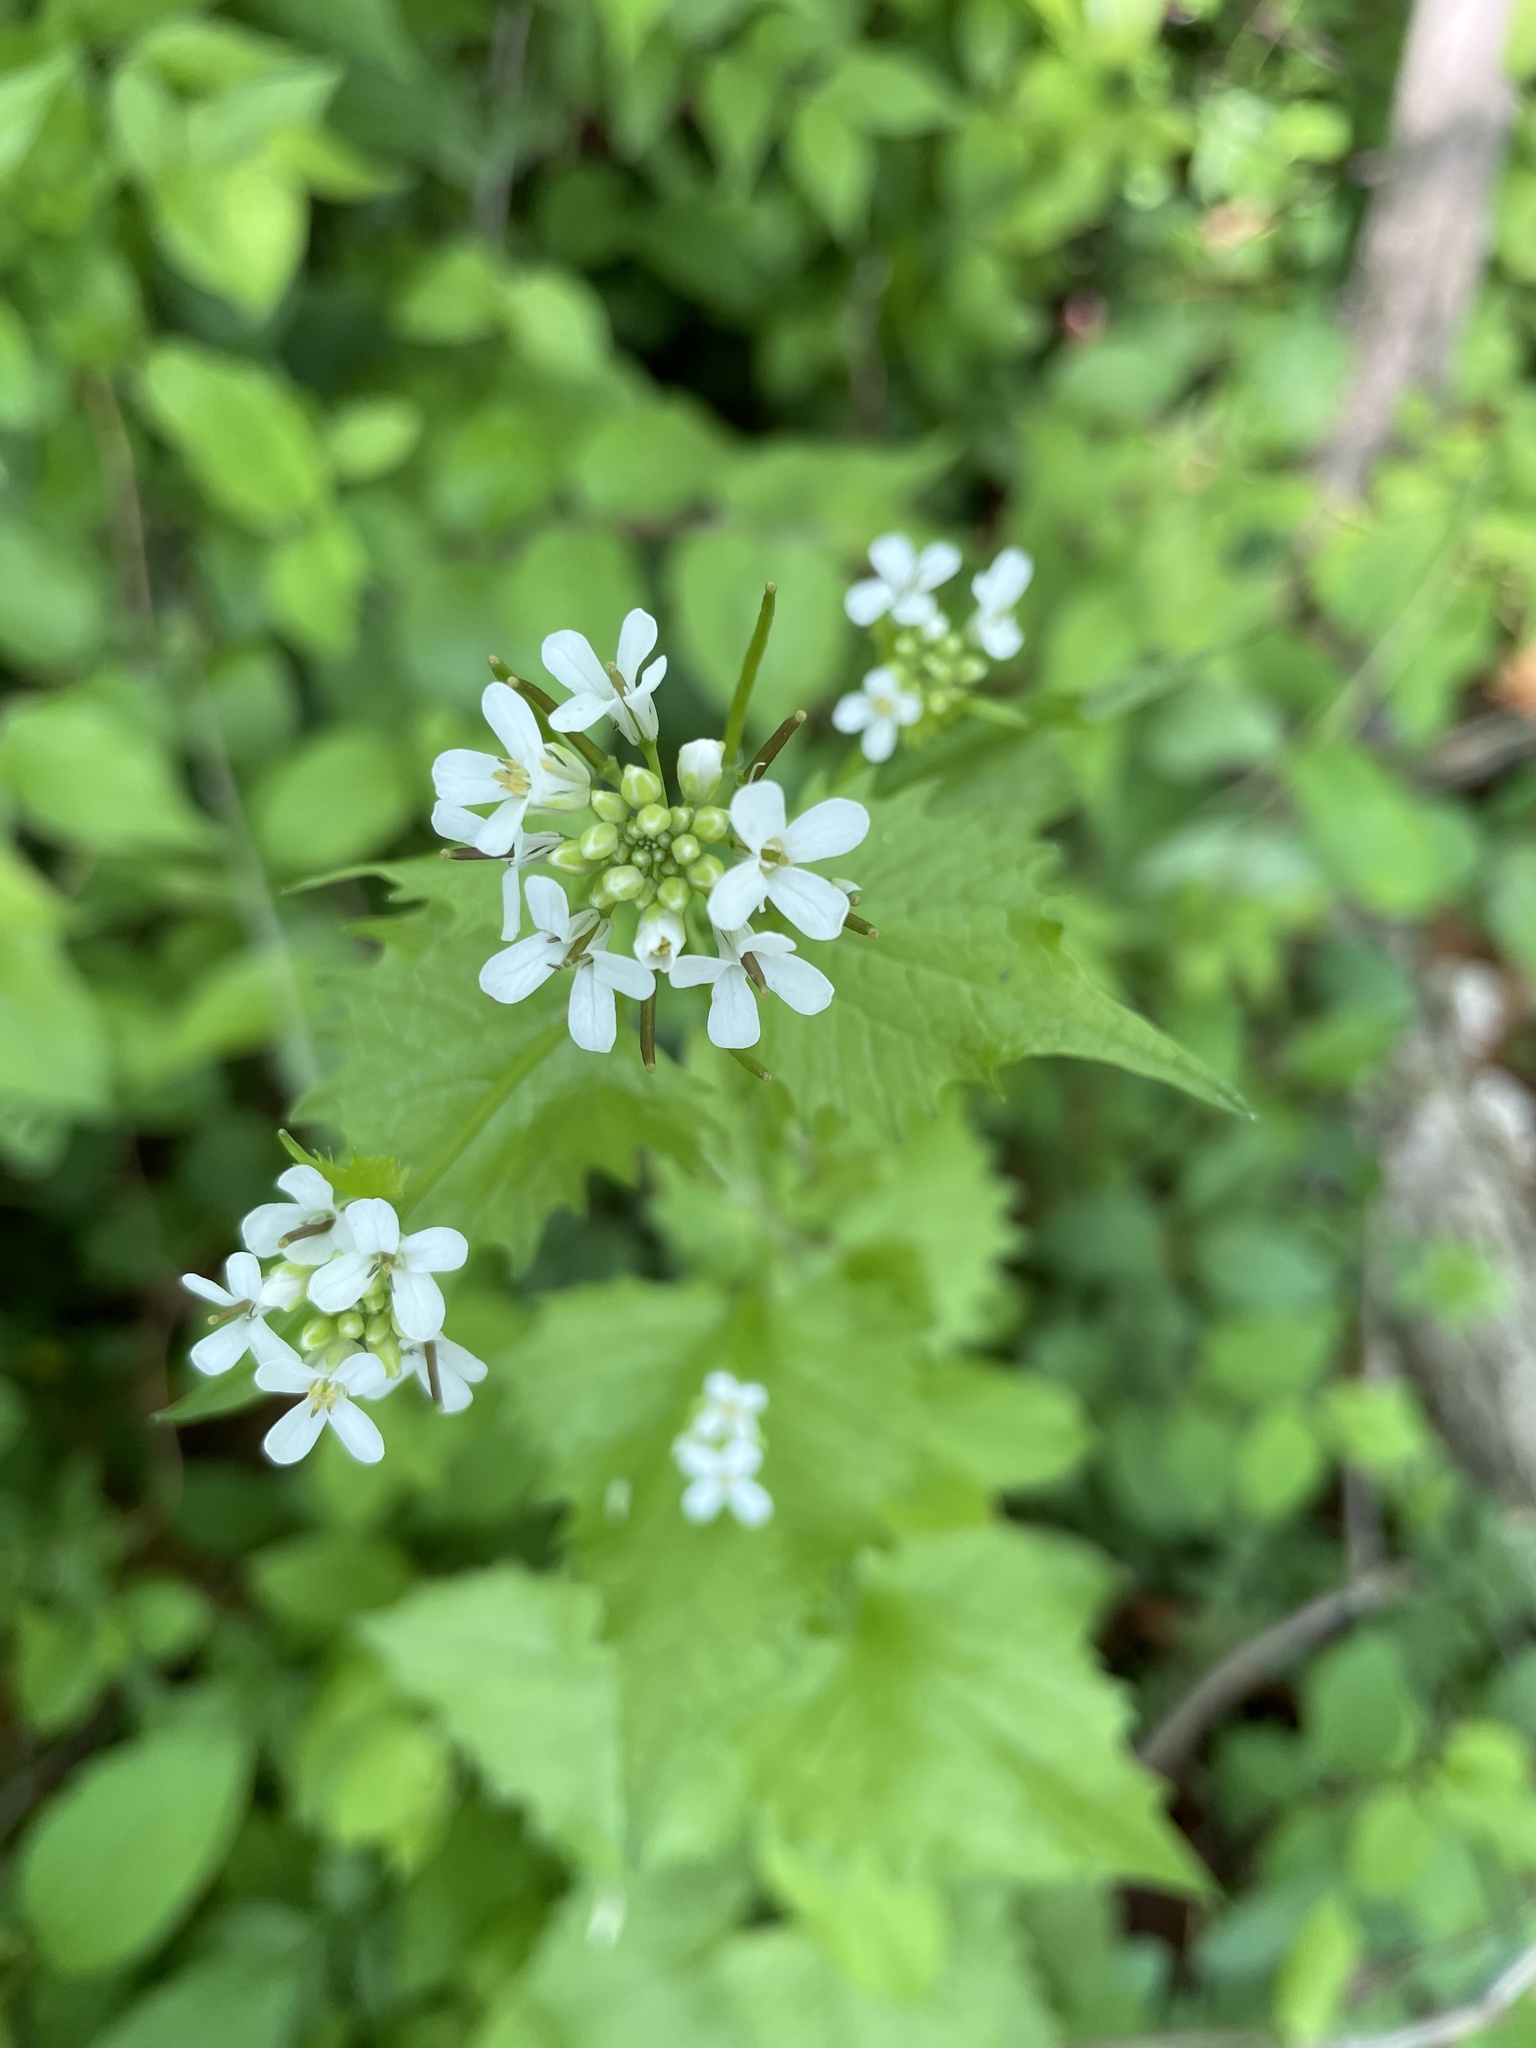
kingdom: Plantae
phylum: Tracheophyta
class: Magnoliopsida
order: Brassicales
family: Brassicaceae
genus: Alliaria
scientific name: Alliaria petiolata
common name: Garlic mustard
